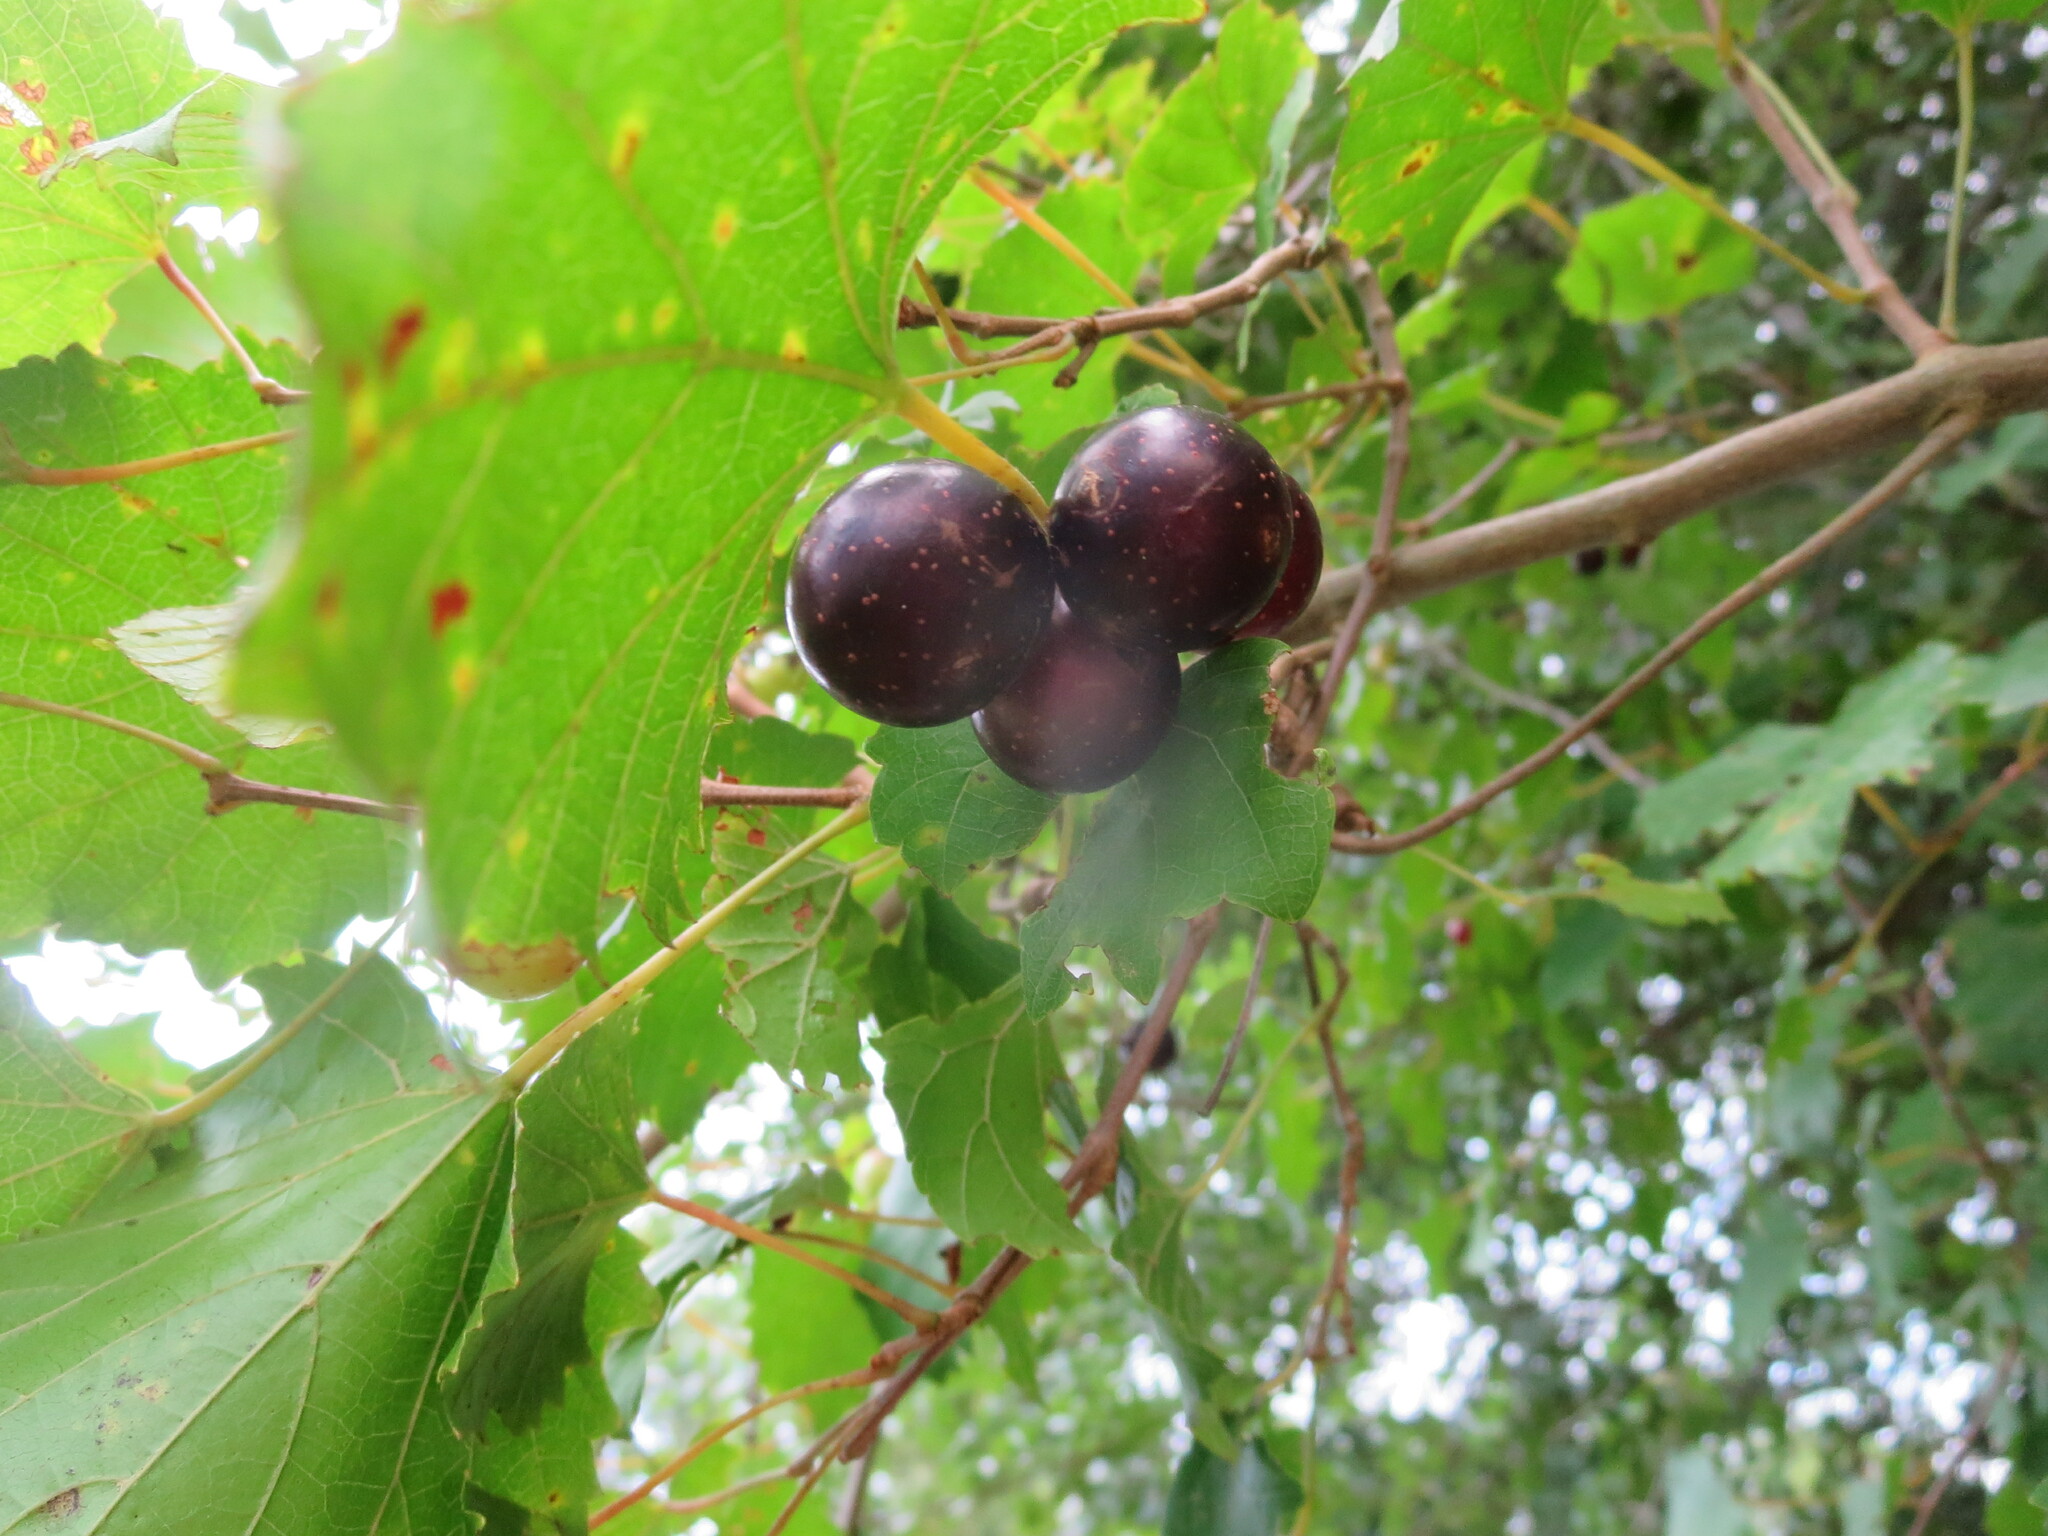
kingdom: Plantae
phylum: Tracheophyta
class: Magnoliopsida
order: Vitales
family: Vitaceae
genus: Vitis
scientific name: Vitis rotundifolia
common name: Muscadine grape
